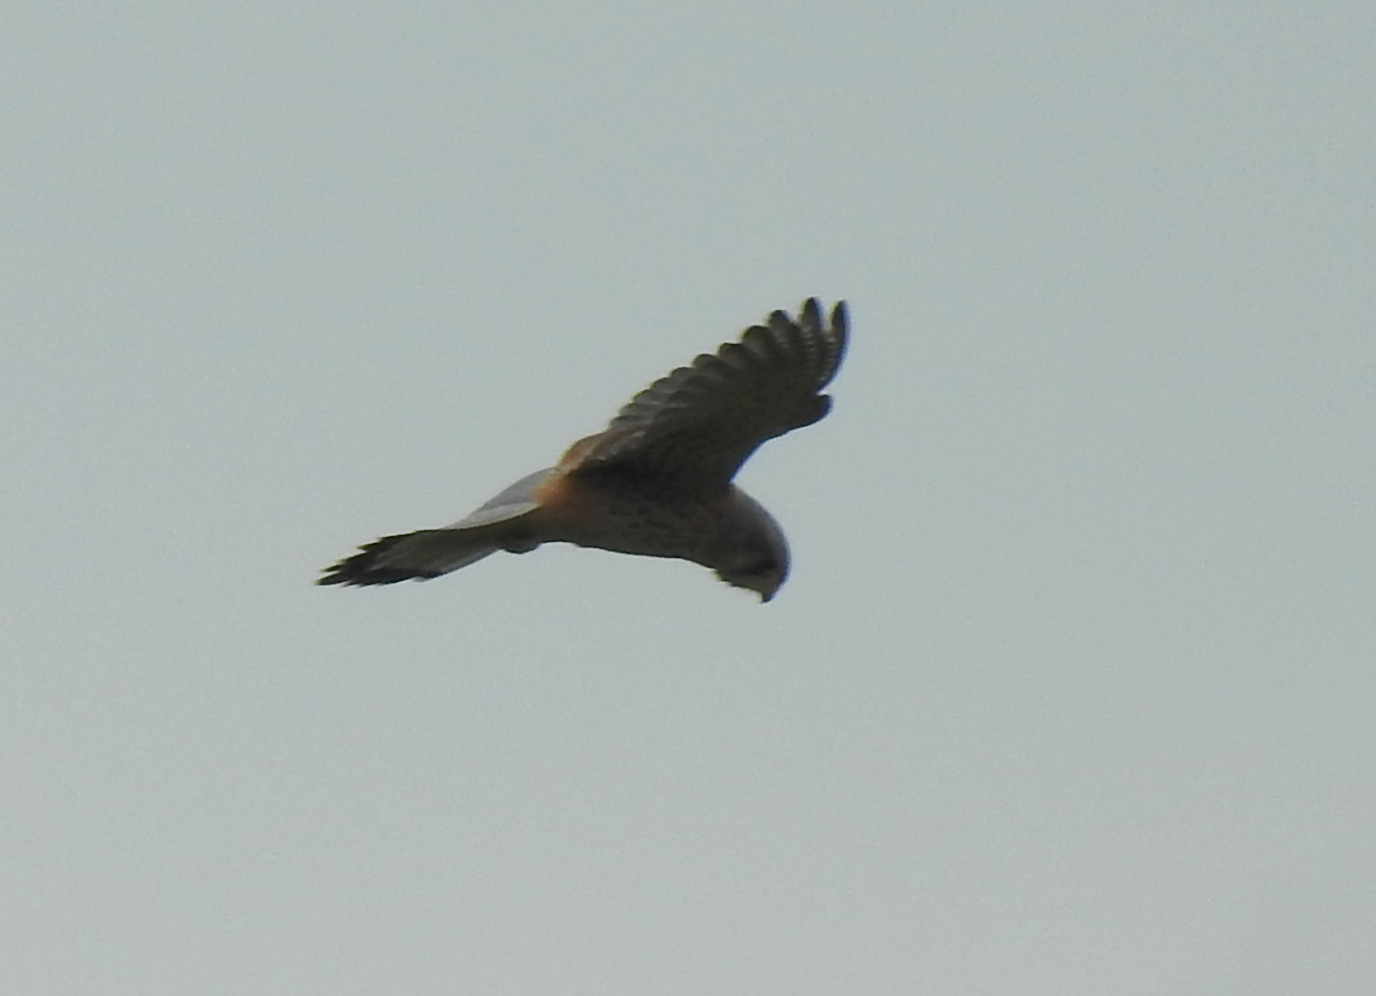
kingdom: Animalia
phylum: Chordata
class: Aves
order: Falconiformes
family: Falconidae
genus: Falco
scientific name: Falco tinnunculus
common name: Common kestrel
